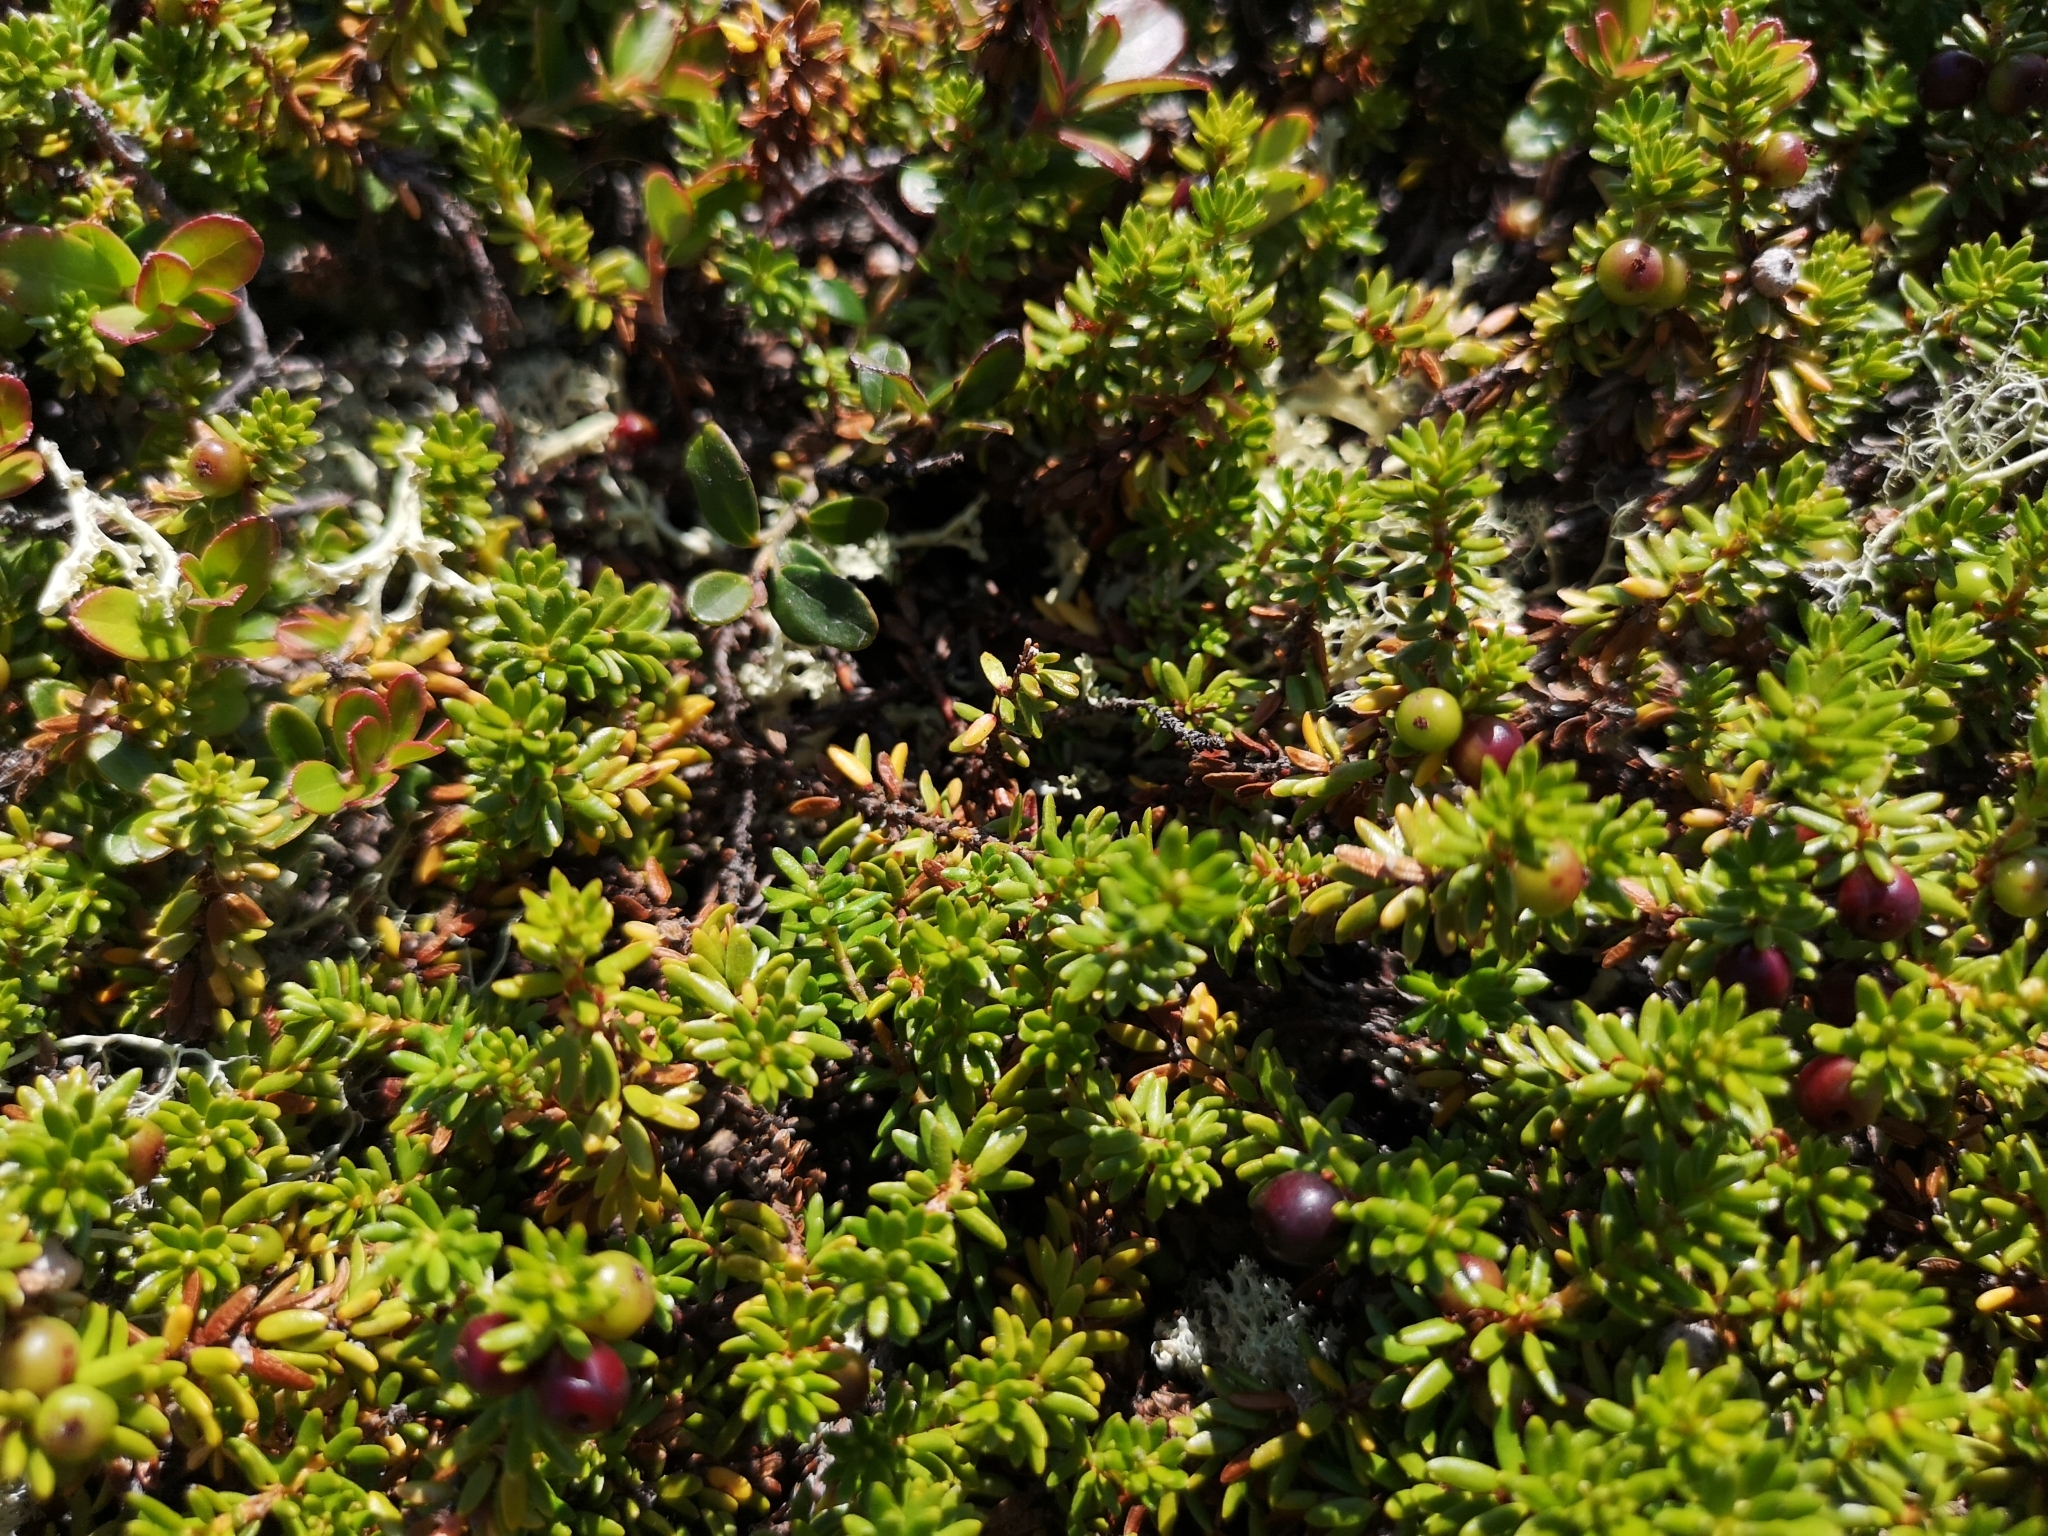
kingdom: Plantae
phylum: Tracheophyta
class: Magnoliopsida
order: Ericales
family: Ericaceae
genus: Empetrum
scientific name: Empetrum nigrum
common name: Black crowberry
